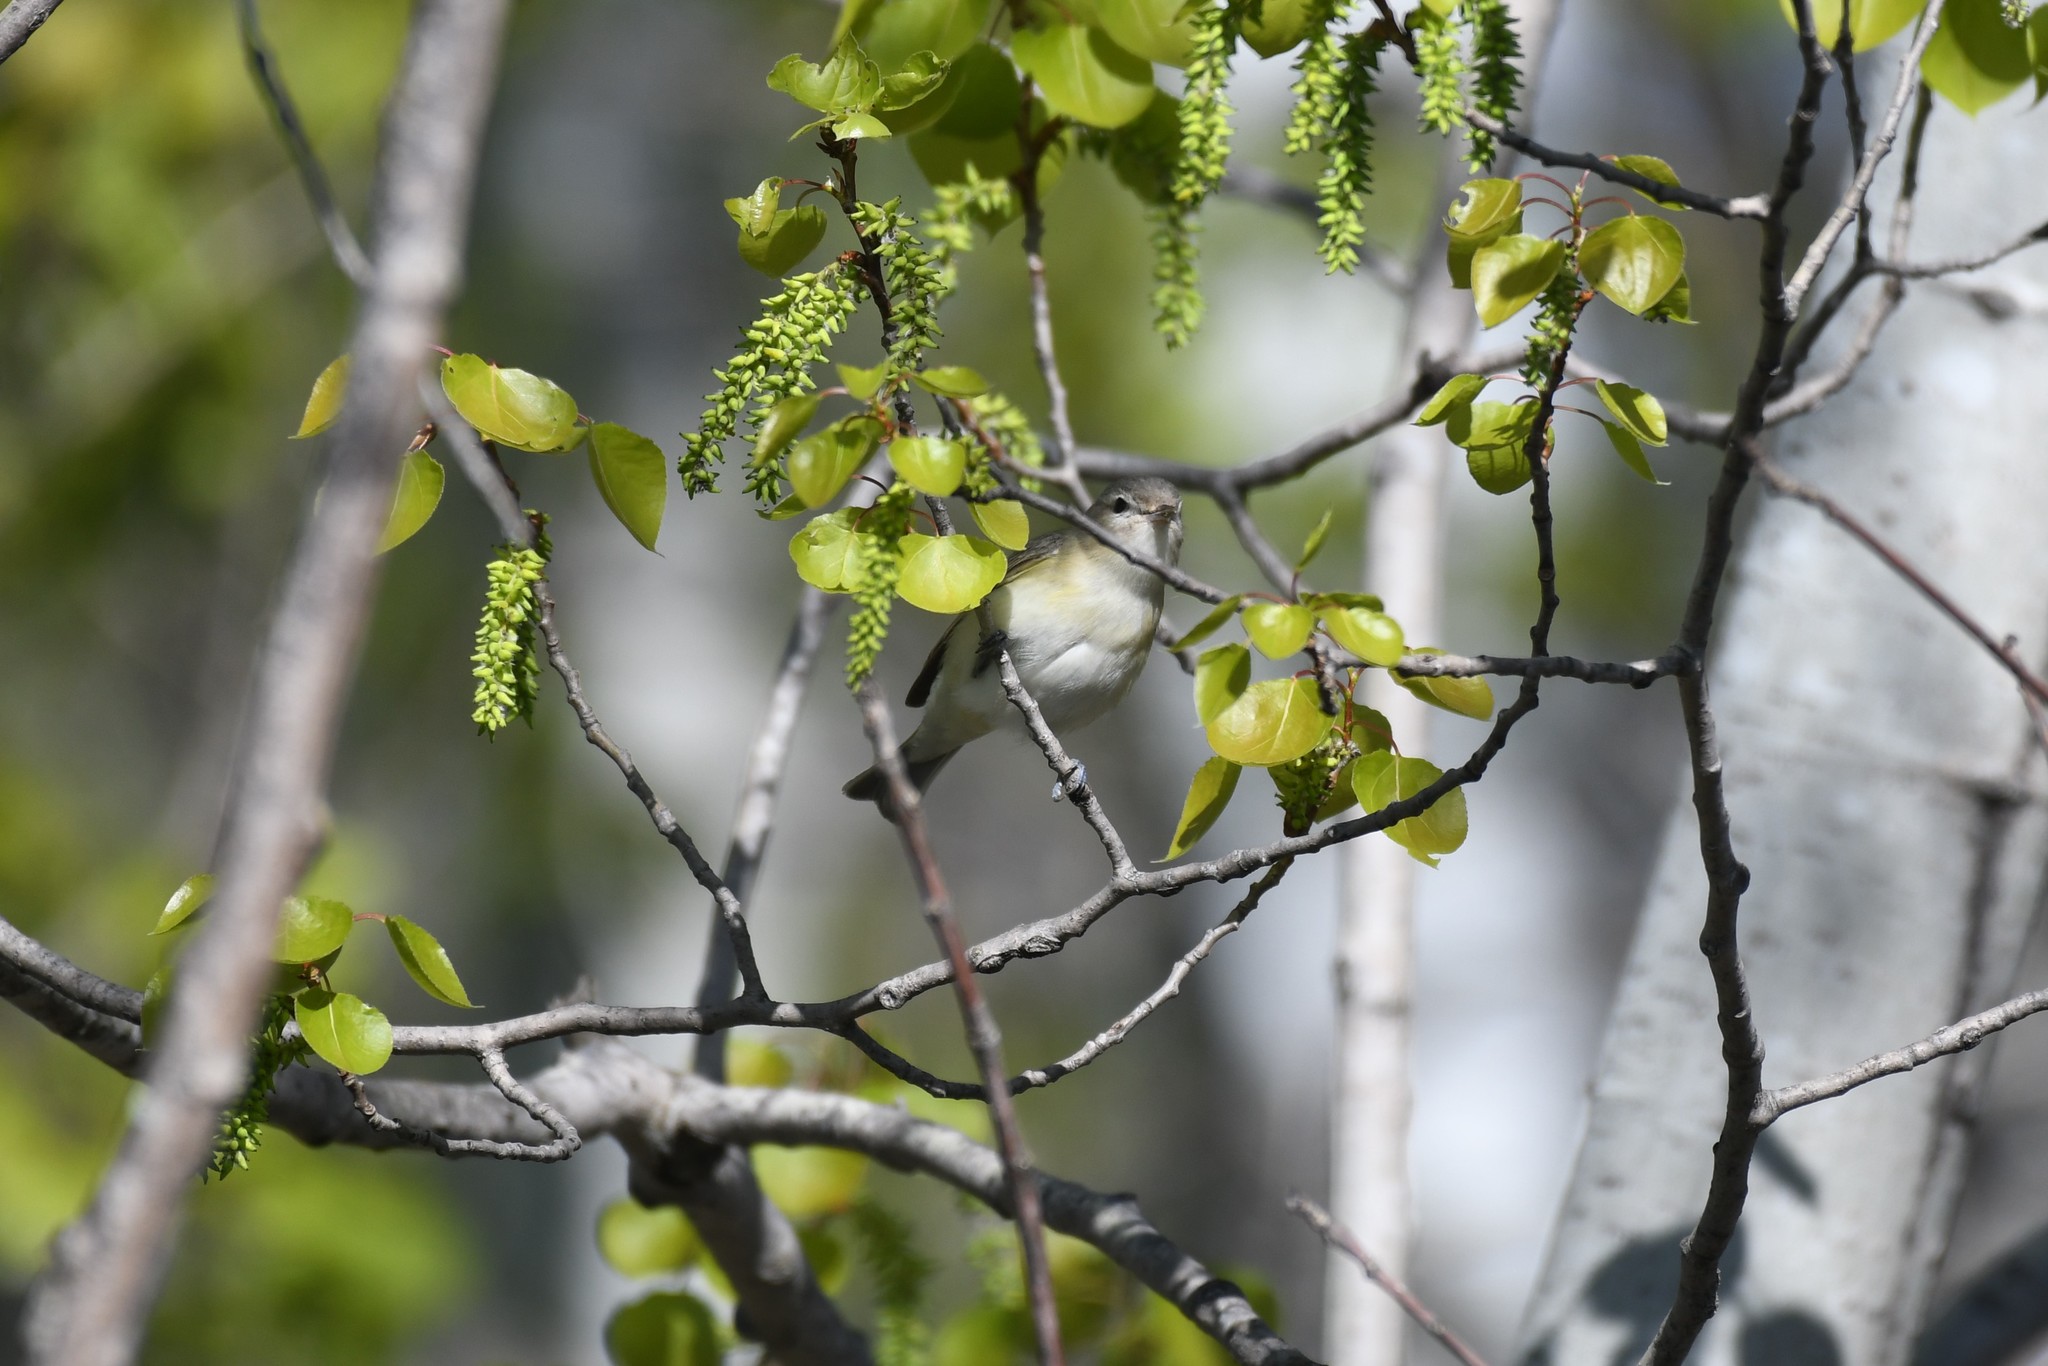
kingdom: Animalia
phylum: Chordata
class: Aves
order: Passeriformes
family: Vireonidae
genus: Vireo
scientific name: Vireo gilvus
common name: Warbling vireo
